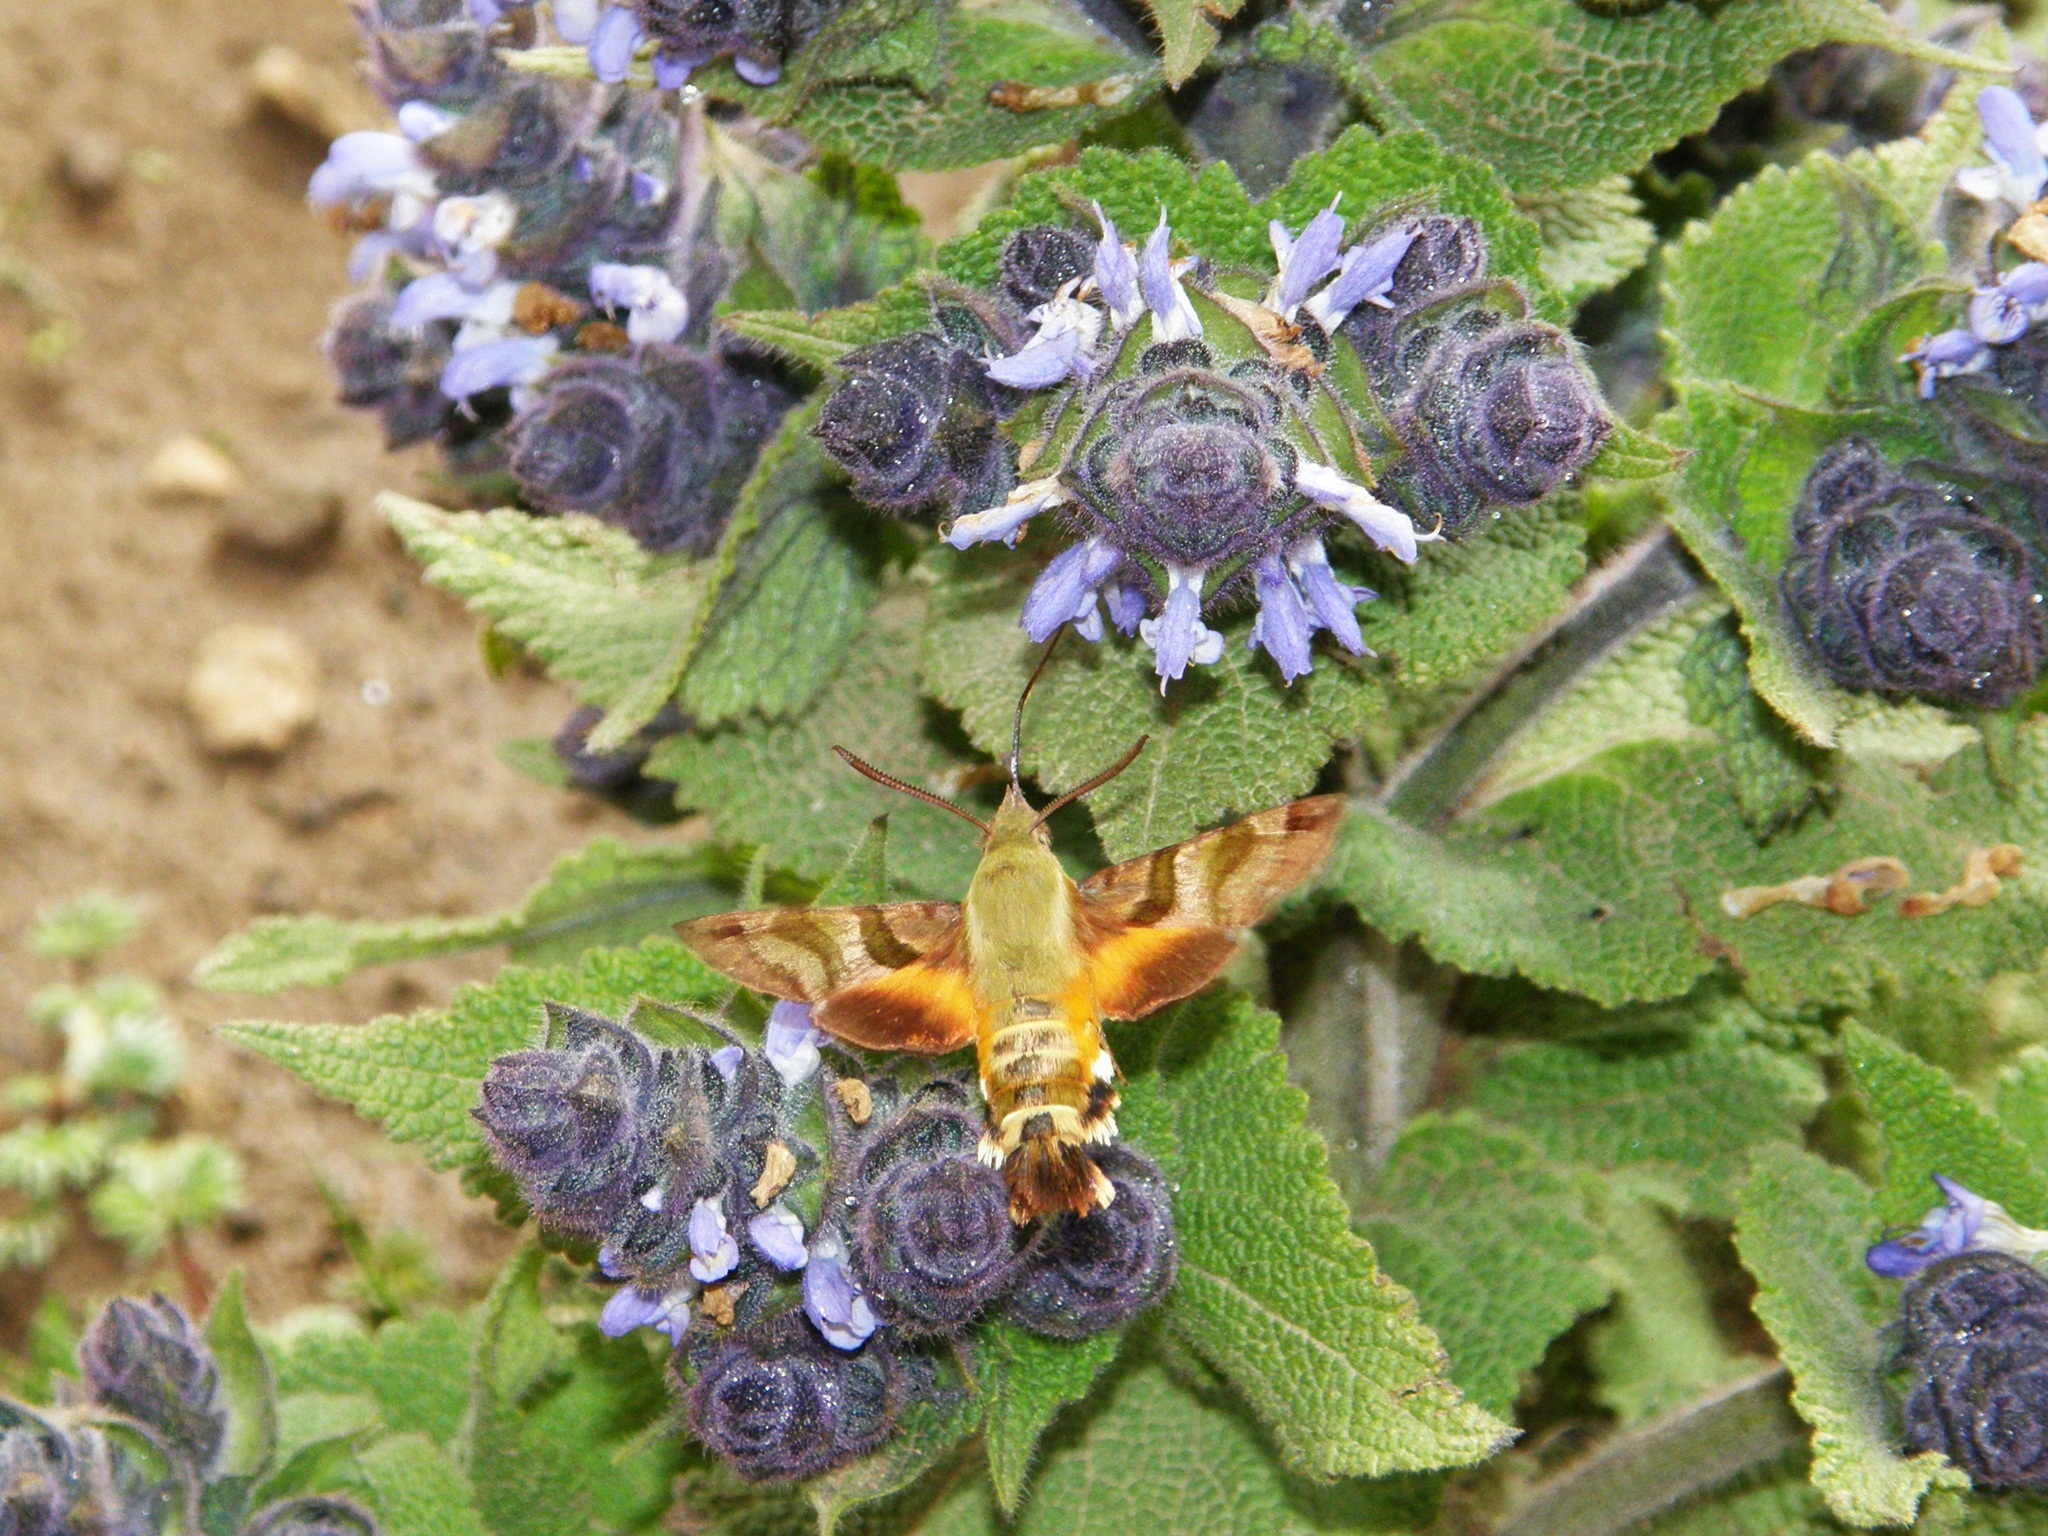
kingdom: Animalia
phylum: Arthropoda
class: Insecta
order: Lepidoptera
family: Sphingidae
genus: Macroglossum
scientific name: Macroglossum trochilus
